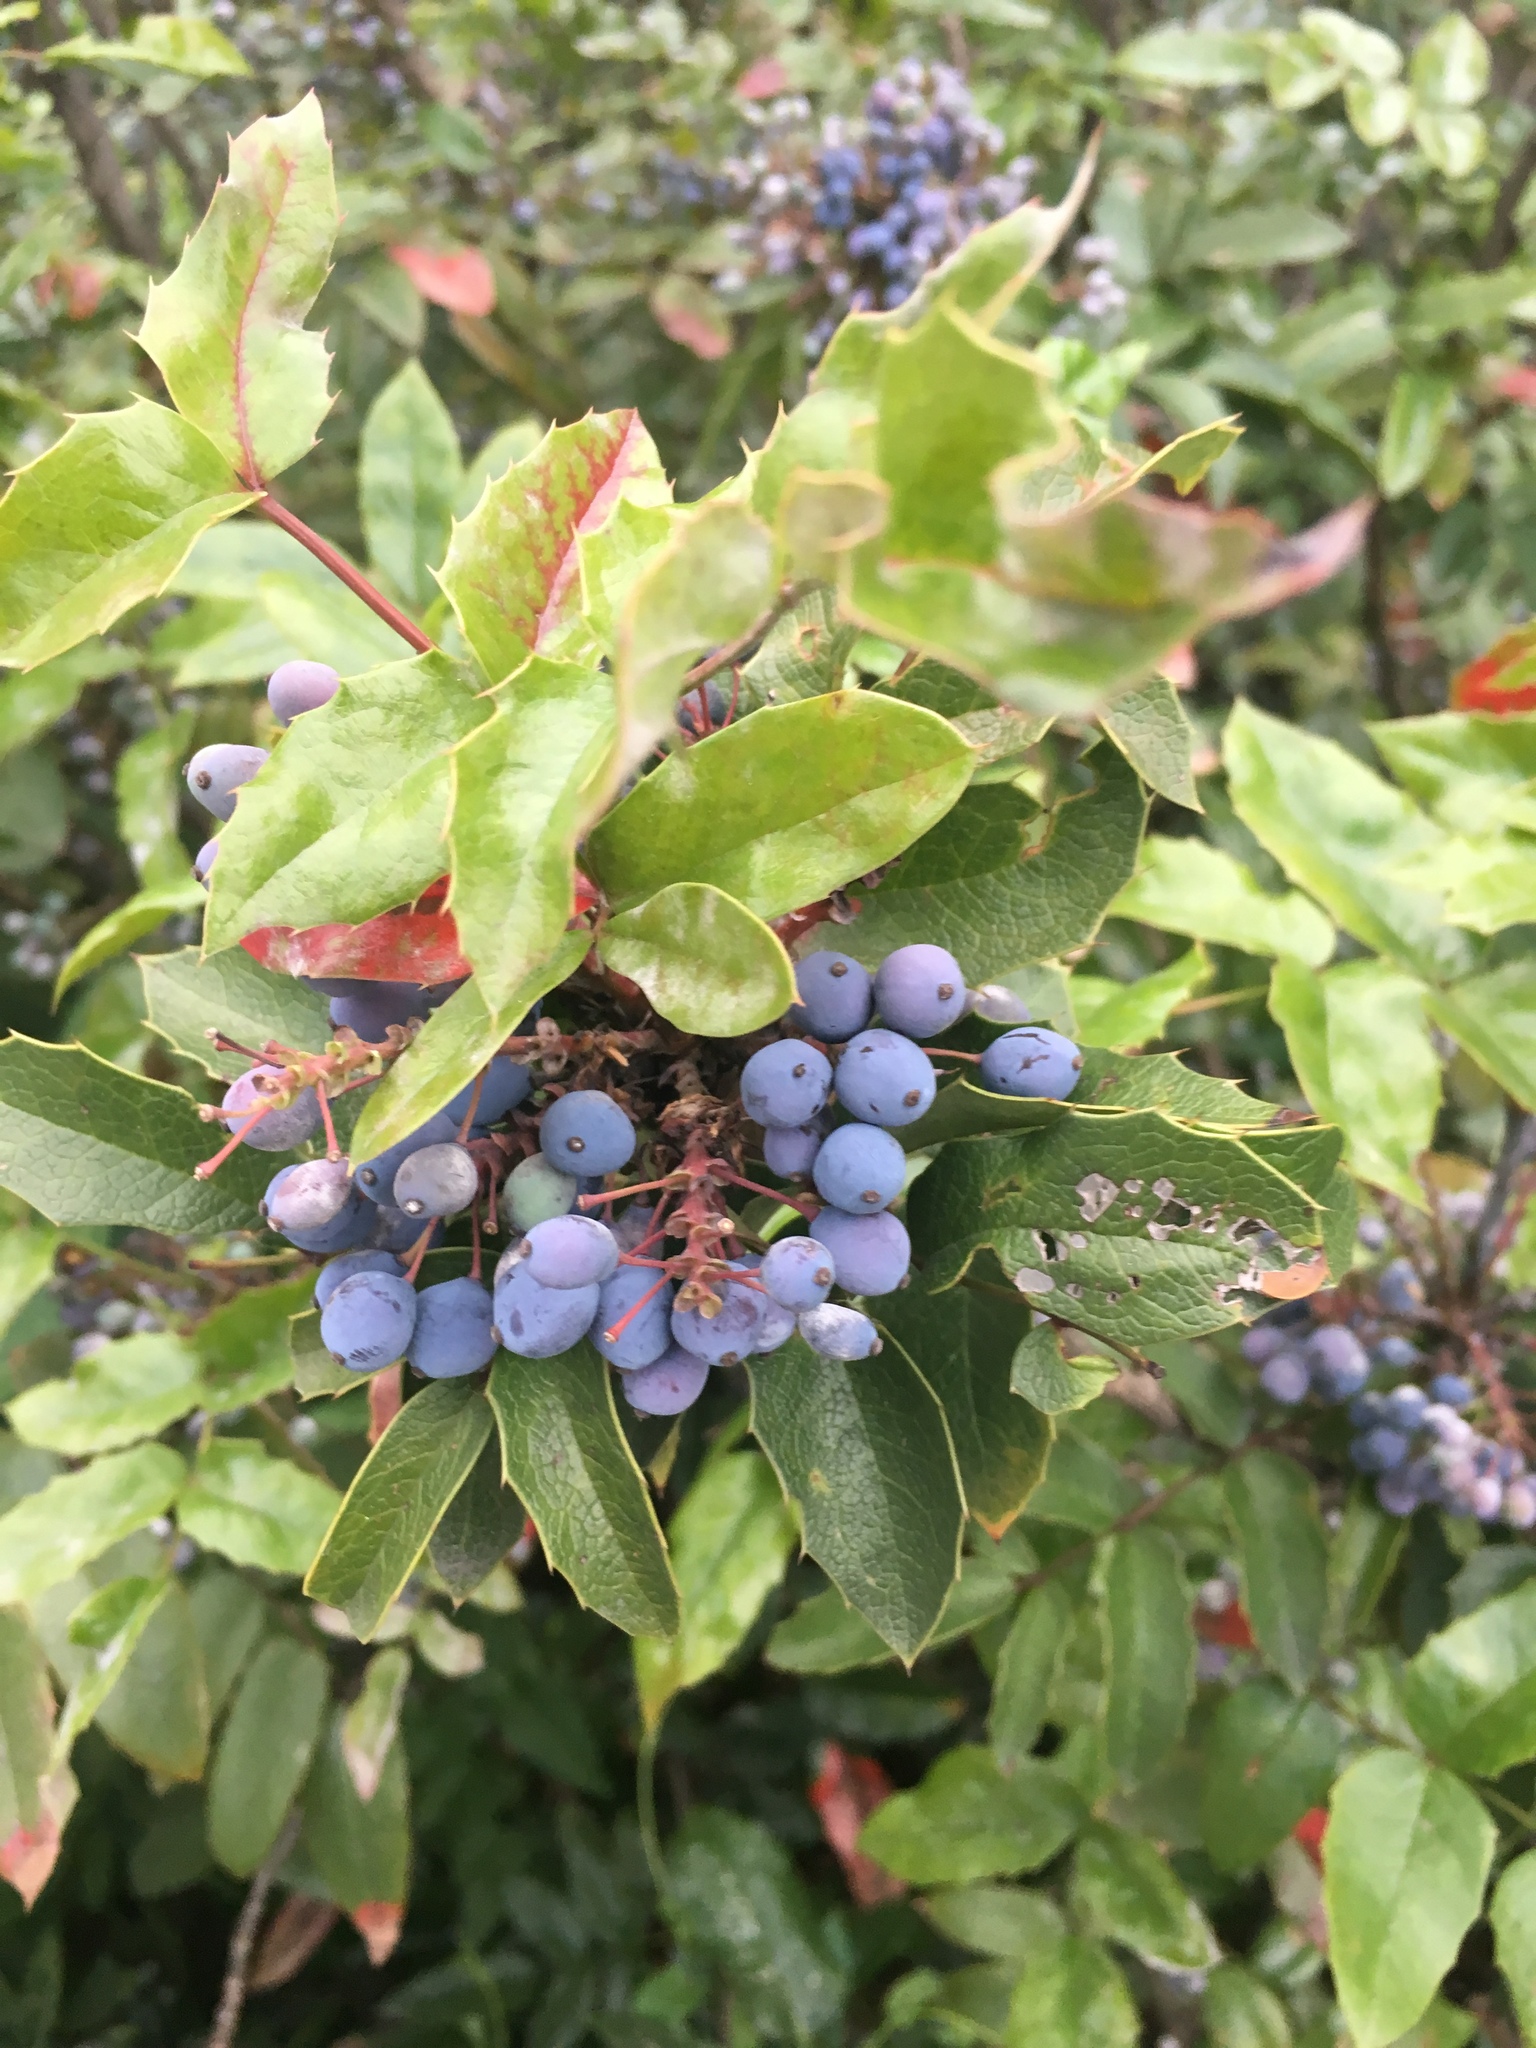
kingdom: Plantae
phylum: Tracheophyta
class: Magnoliopsida
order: Ranunculales
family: Berberidaceae
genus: Mahonia
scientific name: Mahonia aquifolium
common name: Oregon-grape
